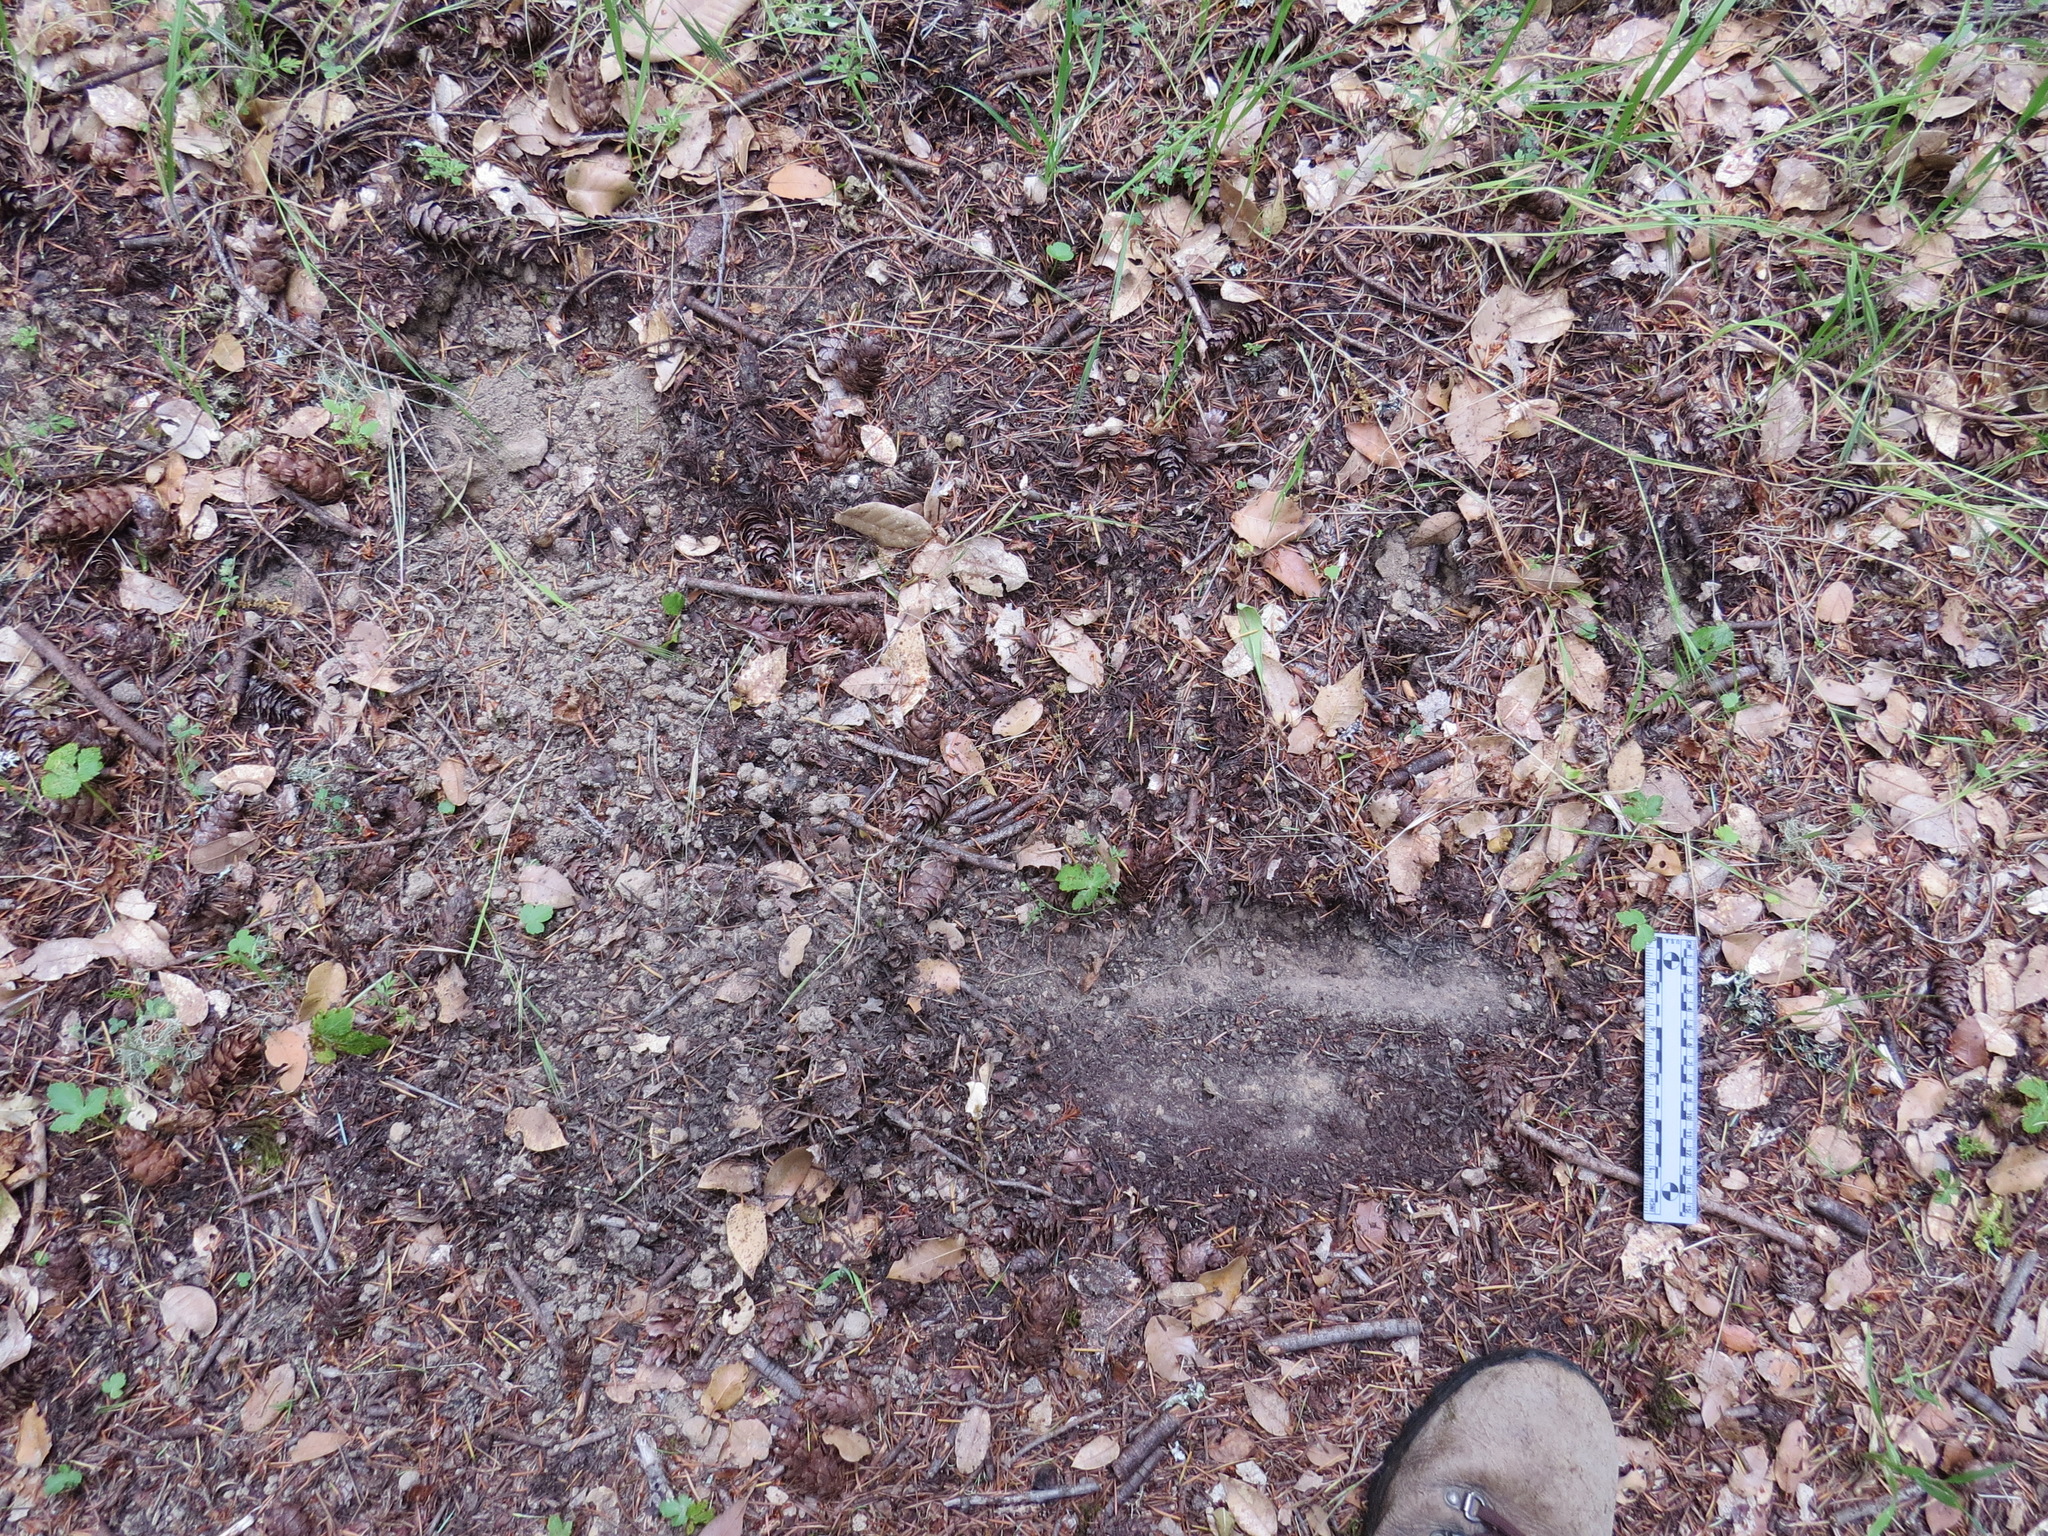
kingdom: Animalia
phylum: Chordata
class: Mammalia
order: Carnivora
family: Canidae
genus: Canis
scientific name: Canis latrans
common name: Coyote
